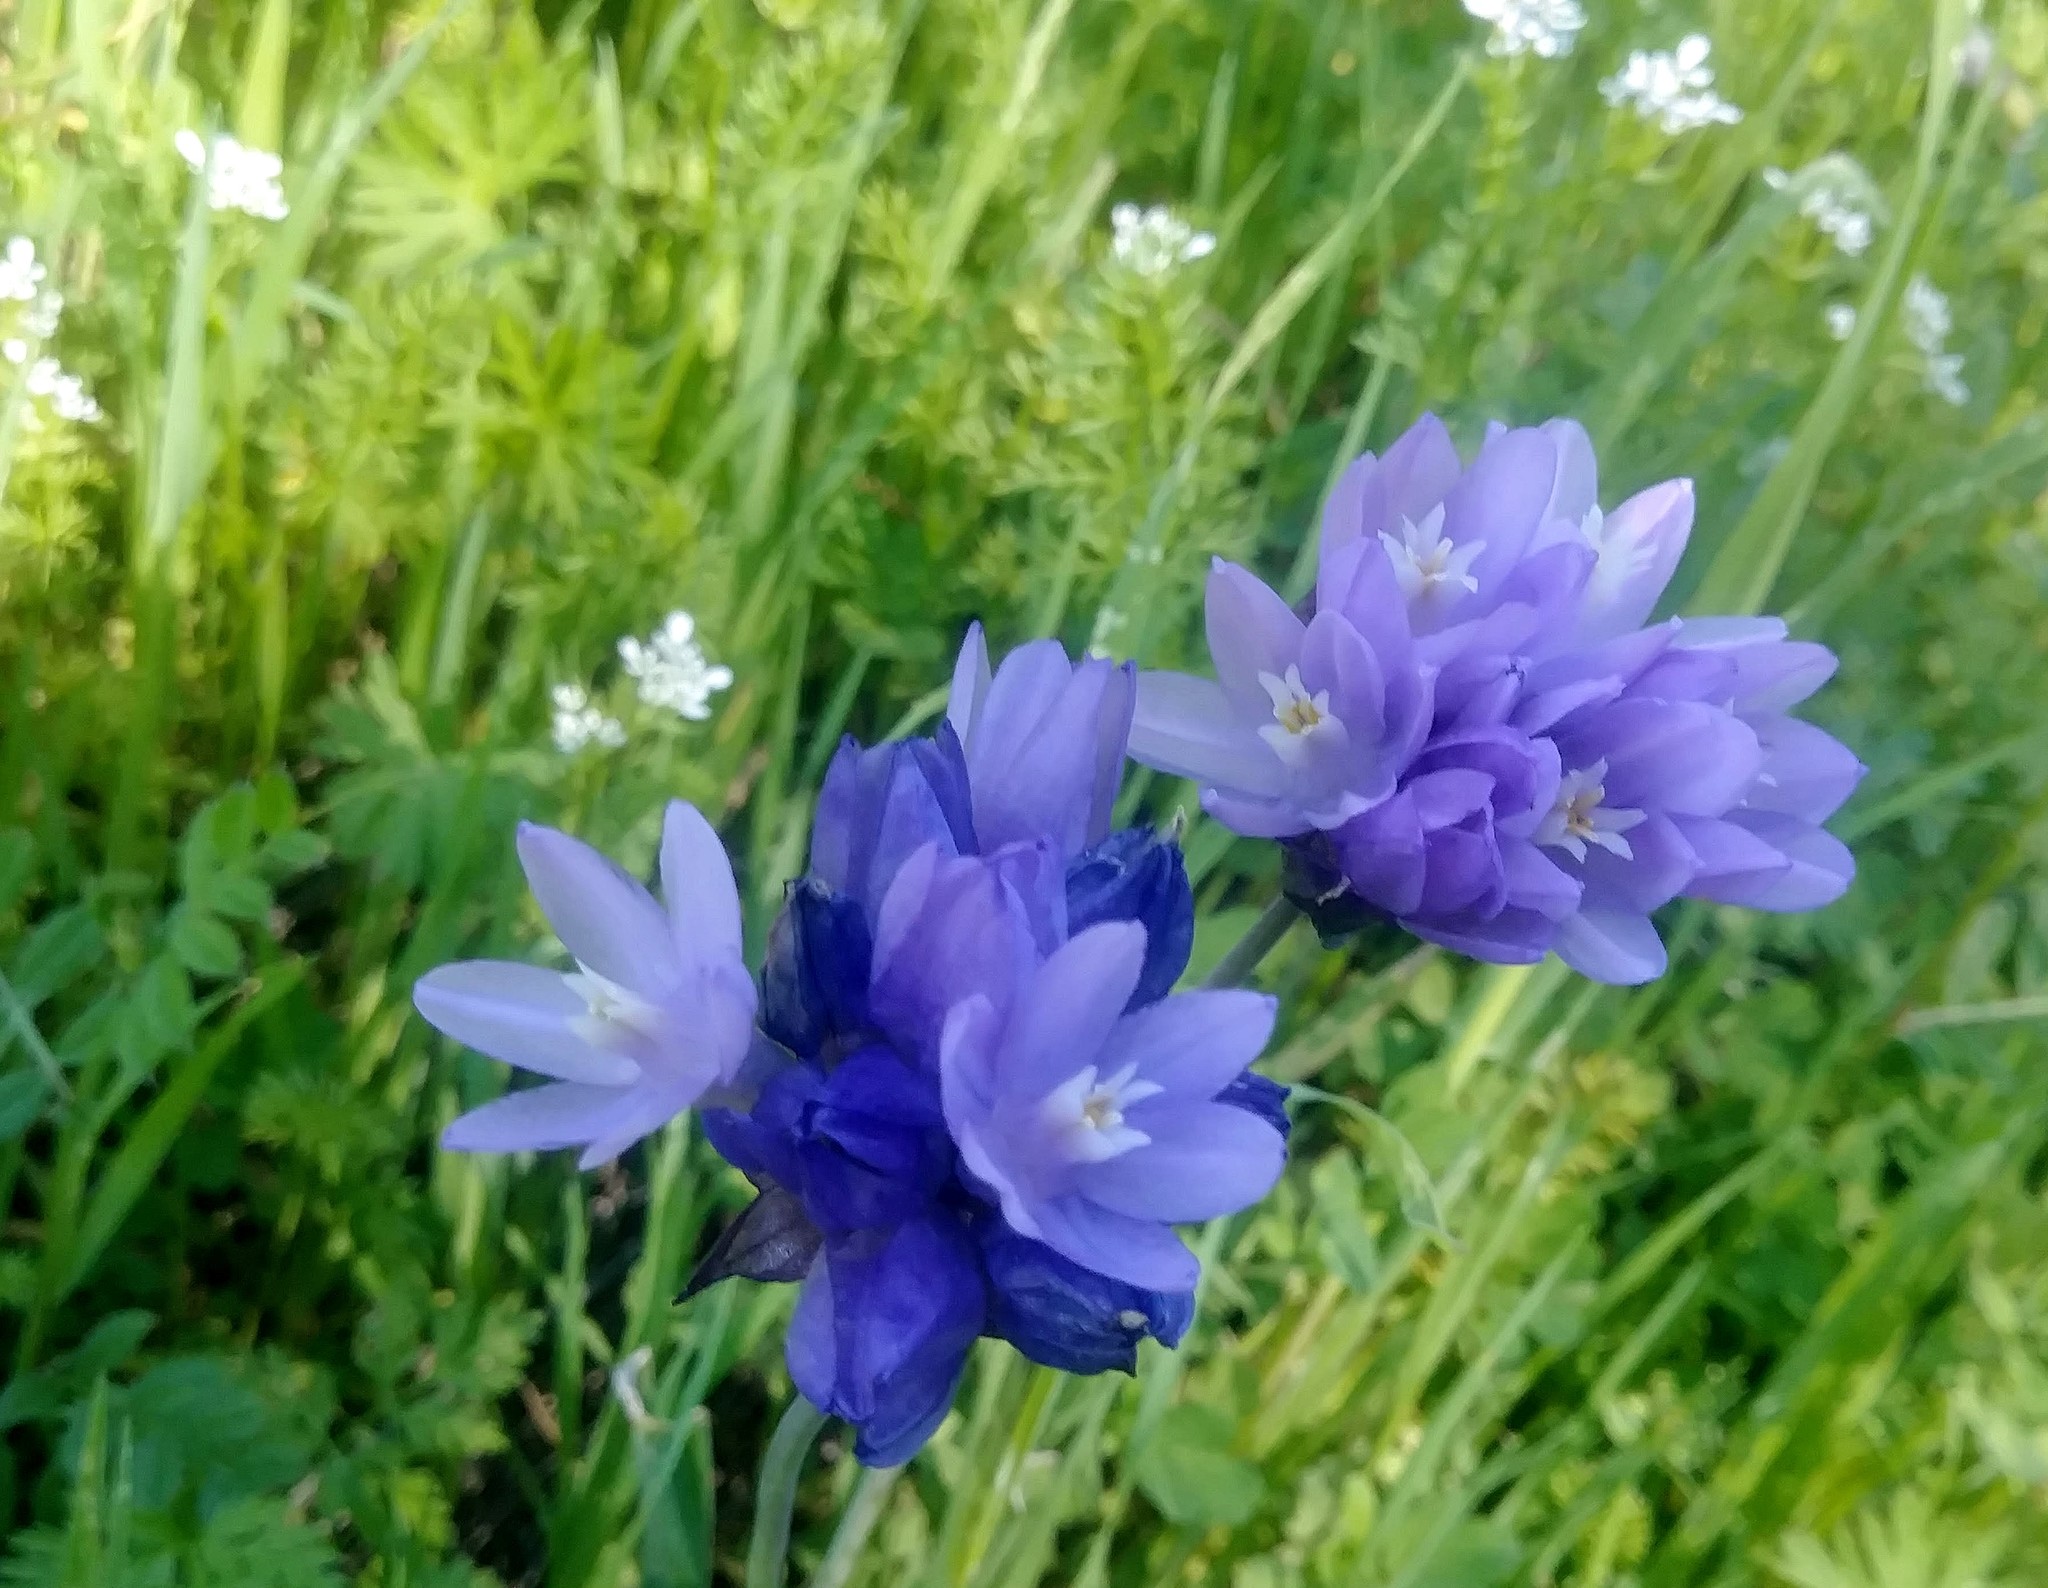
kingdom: Plantae
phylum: Tracheophyta
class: Liliopsida
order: Asparagales
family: Asparagaceae
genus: Dipterostemon
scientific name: Dipterostemon capitatus
